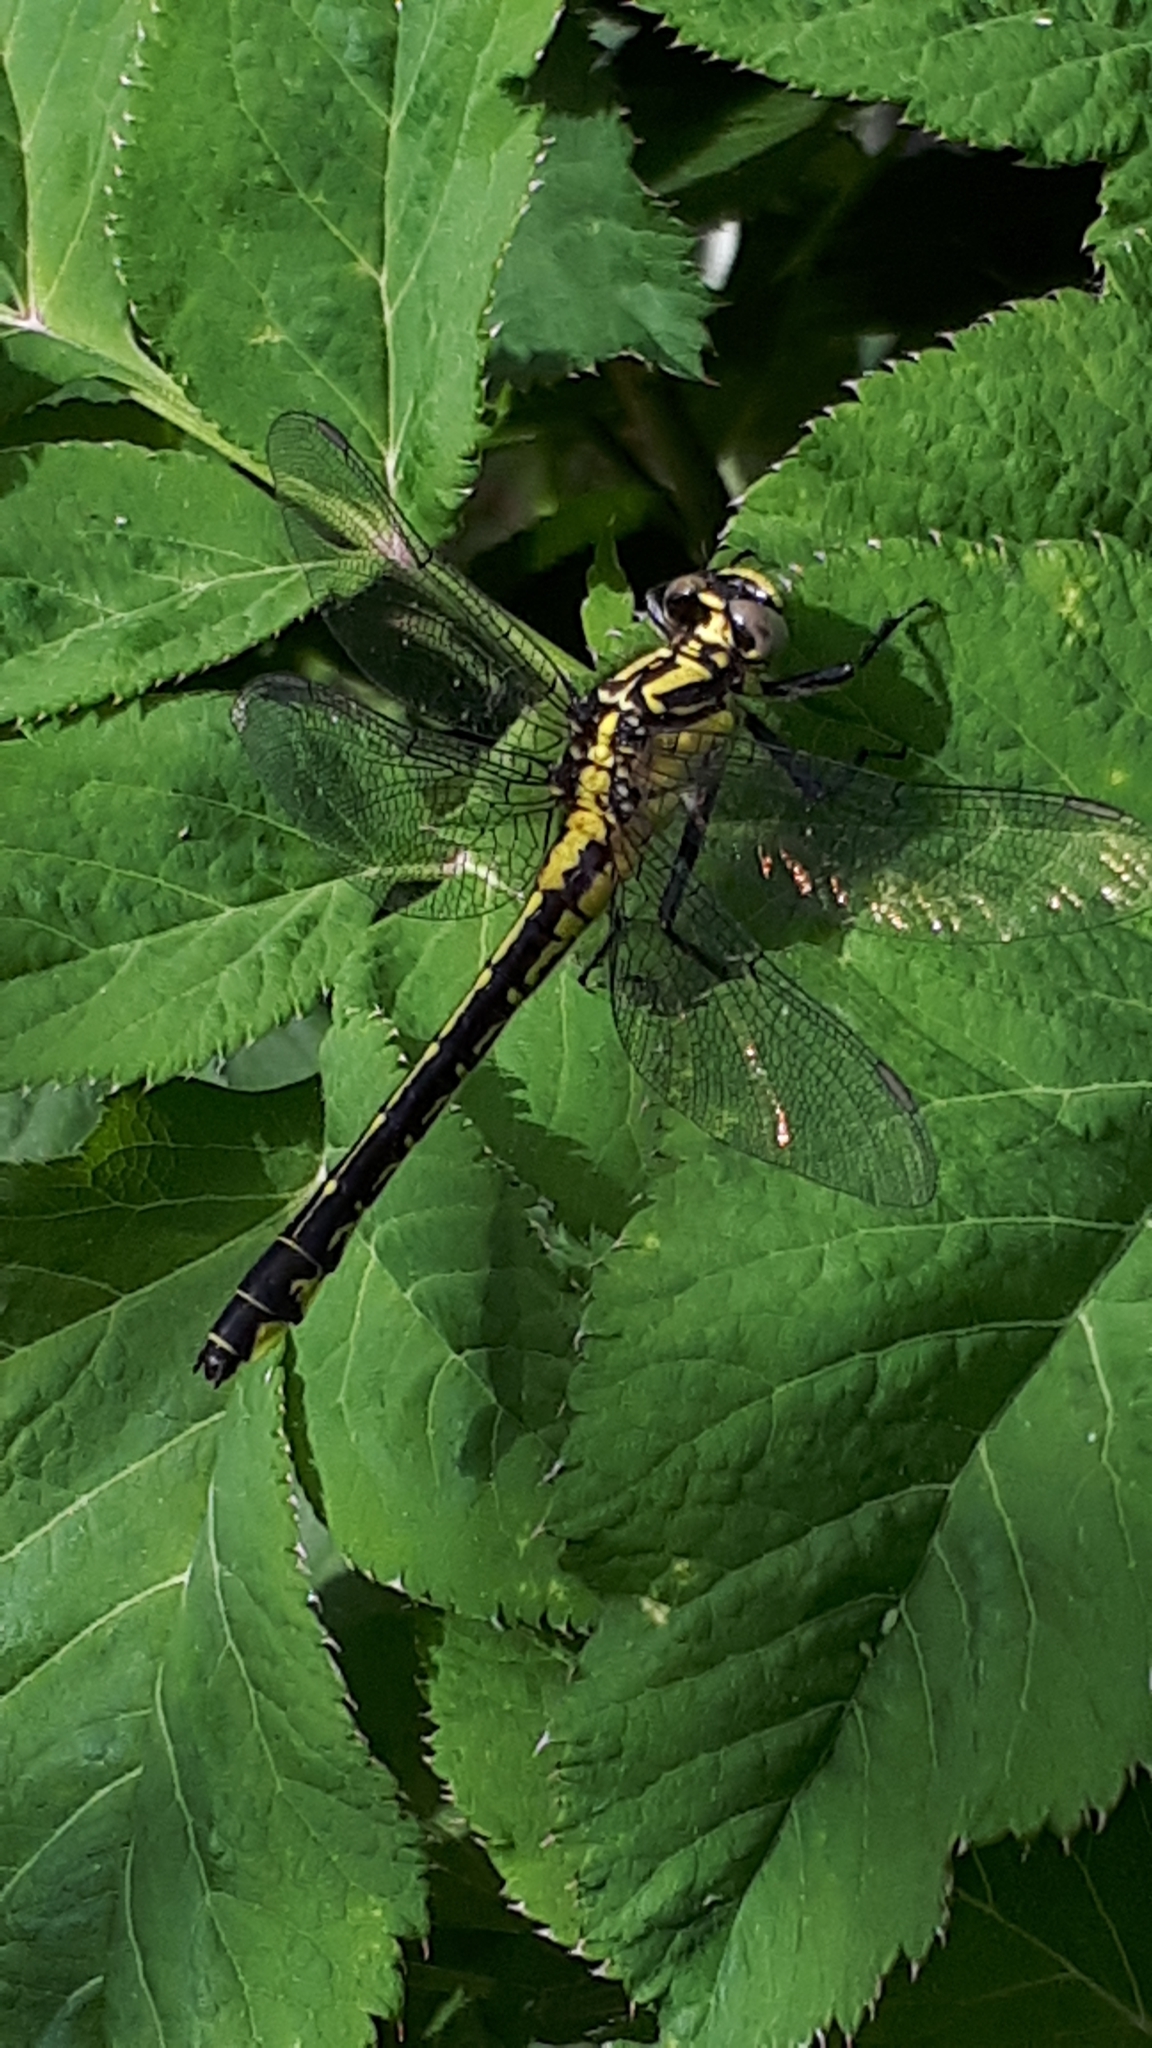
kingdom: Animalia
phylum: Arthropoda
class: Insecta
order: Odonata
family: Gomphidae
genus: Gomphus
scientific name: Gomphus vulgatissimus
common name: Club-tailed dragonfly
